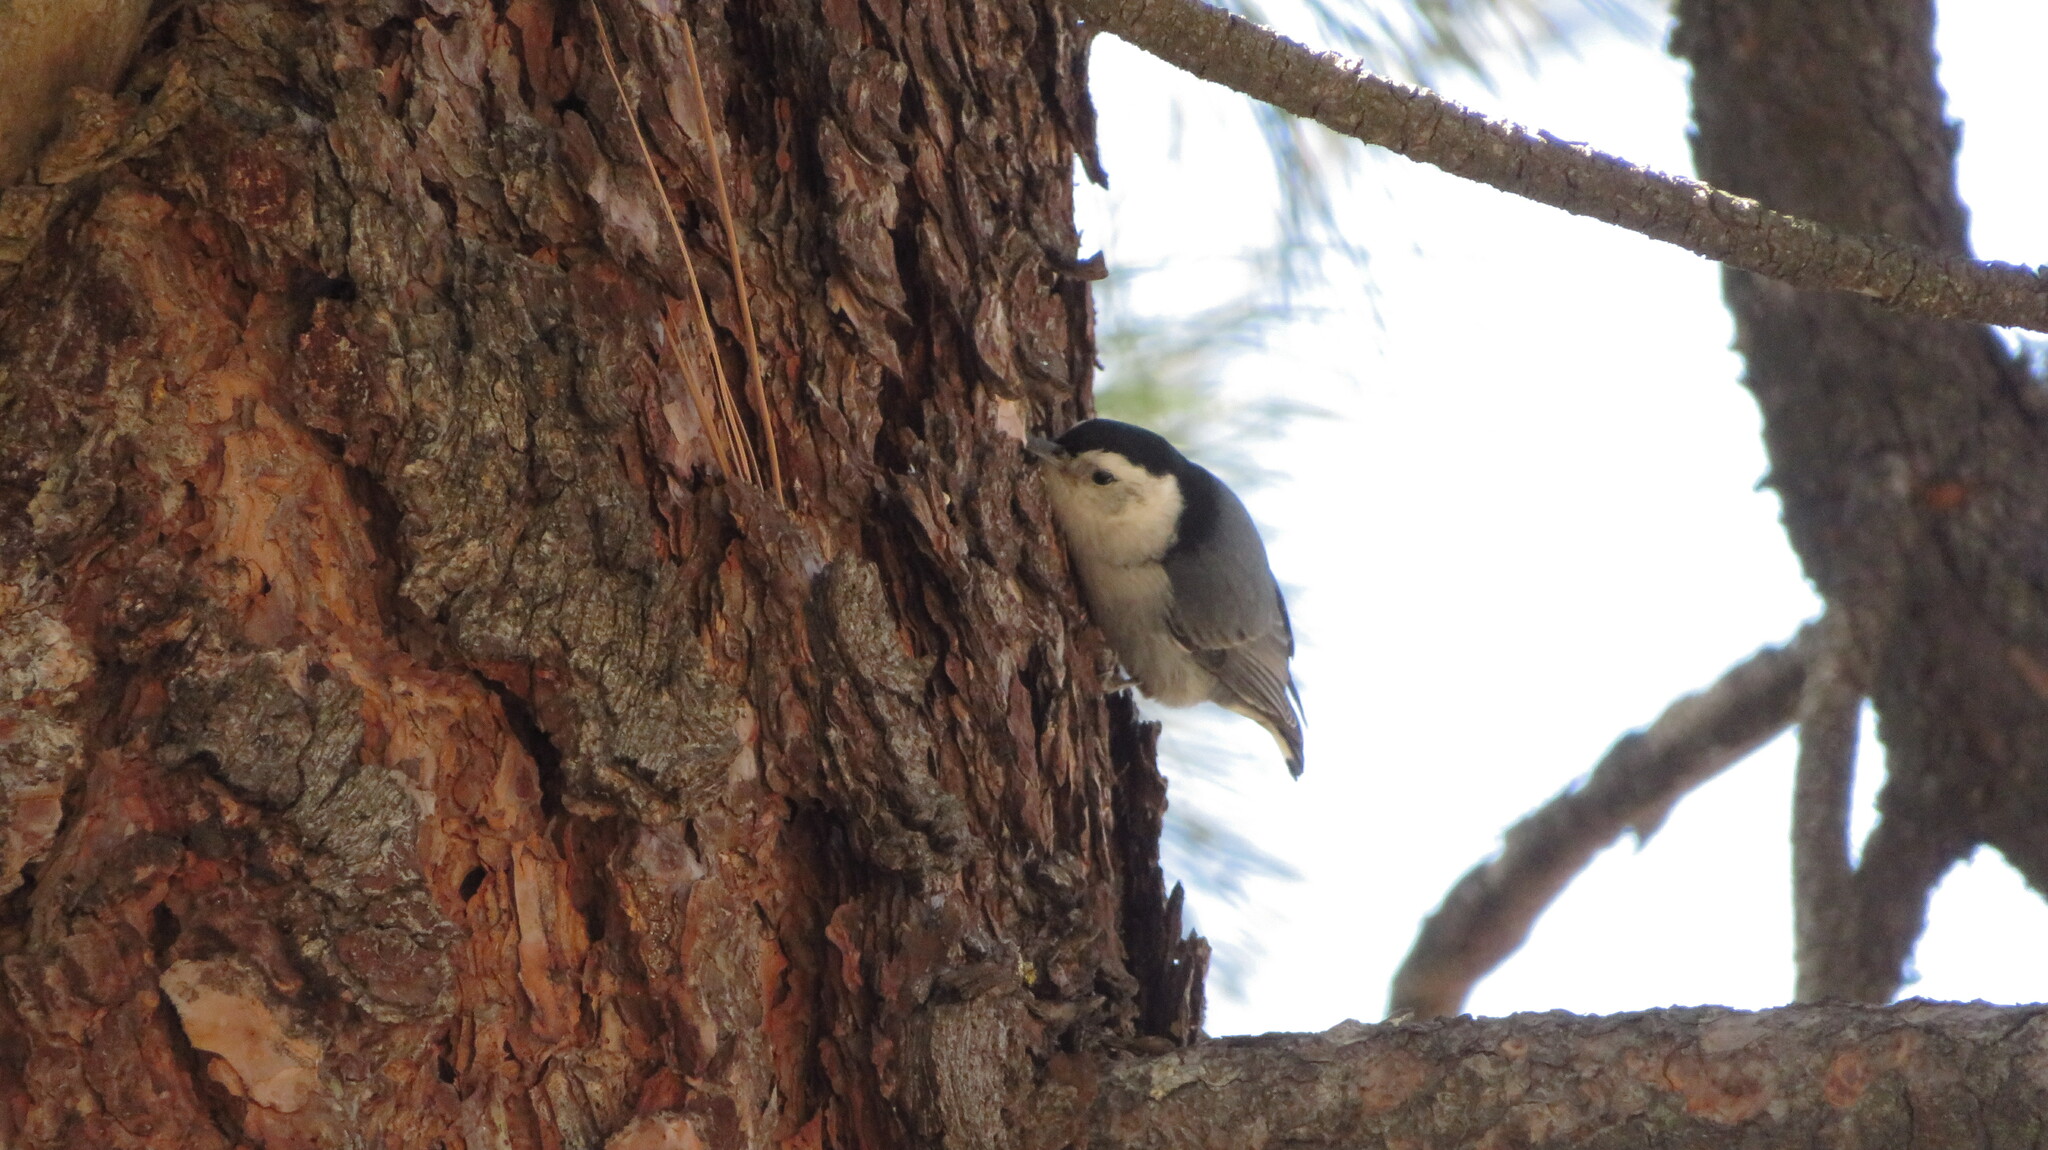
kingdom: Animalia
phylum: Chordata
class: Aves
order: Passeriformes
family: Sittidae
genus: Sitta
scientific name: Sitta carolinensis
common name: White-breasted nuthatch
